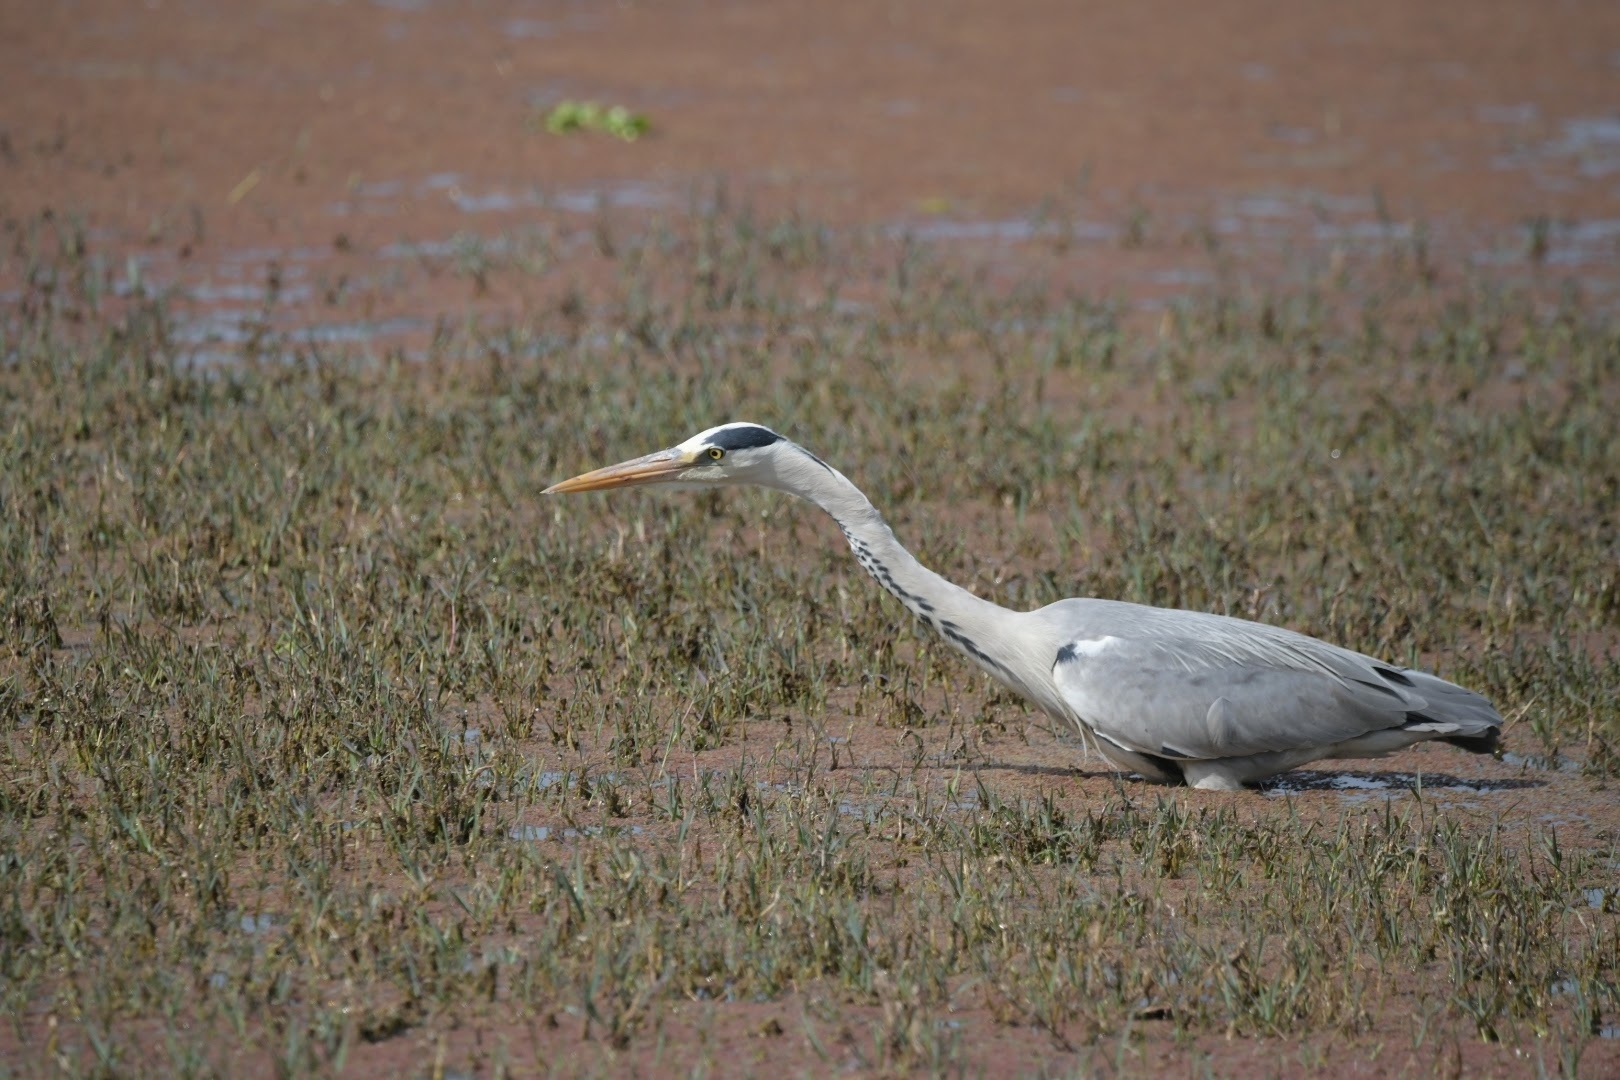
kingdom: Animalia
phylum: Chordata
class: Aves
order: Pelecaniformes
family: Ardeidae
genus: Ardea
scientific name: Ardea cinerea
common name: Grey heron
